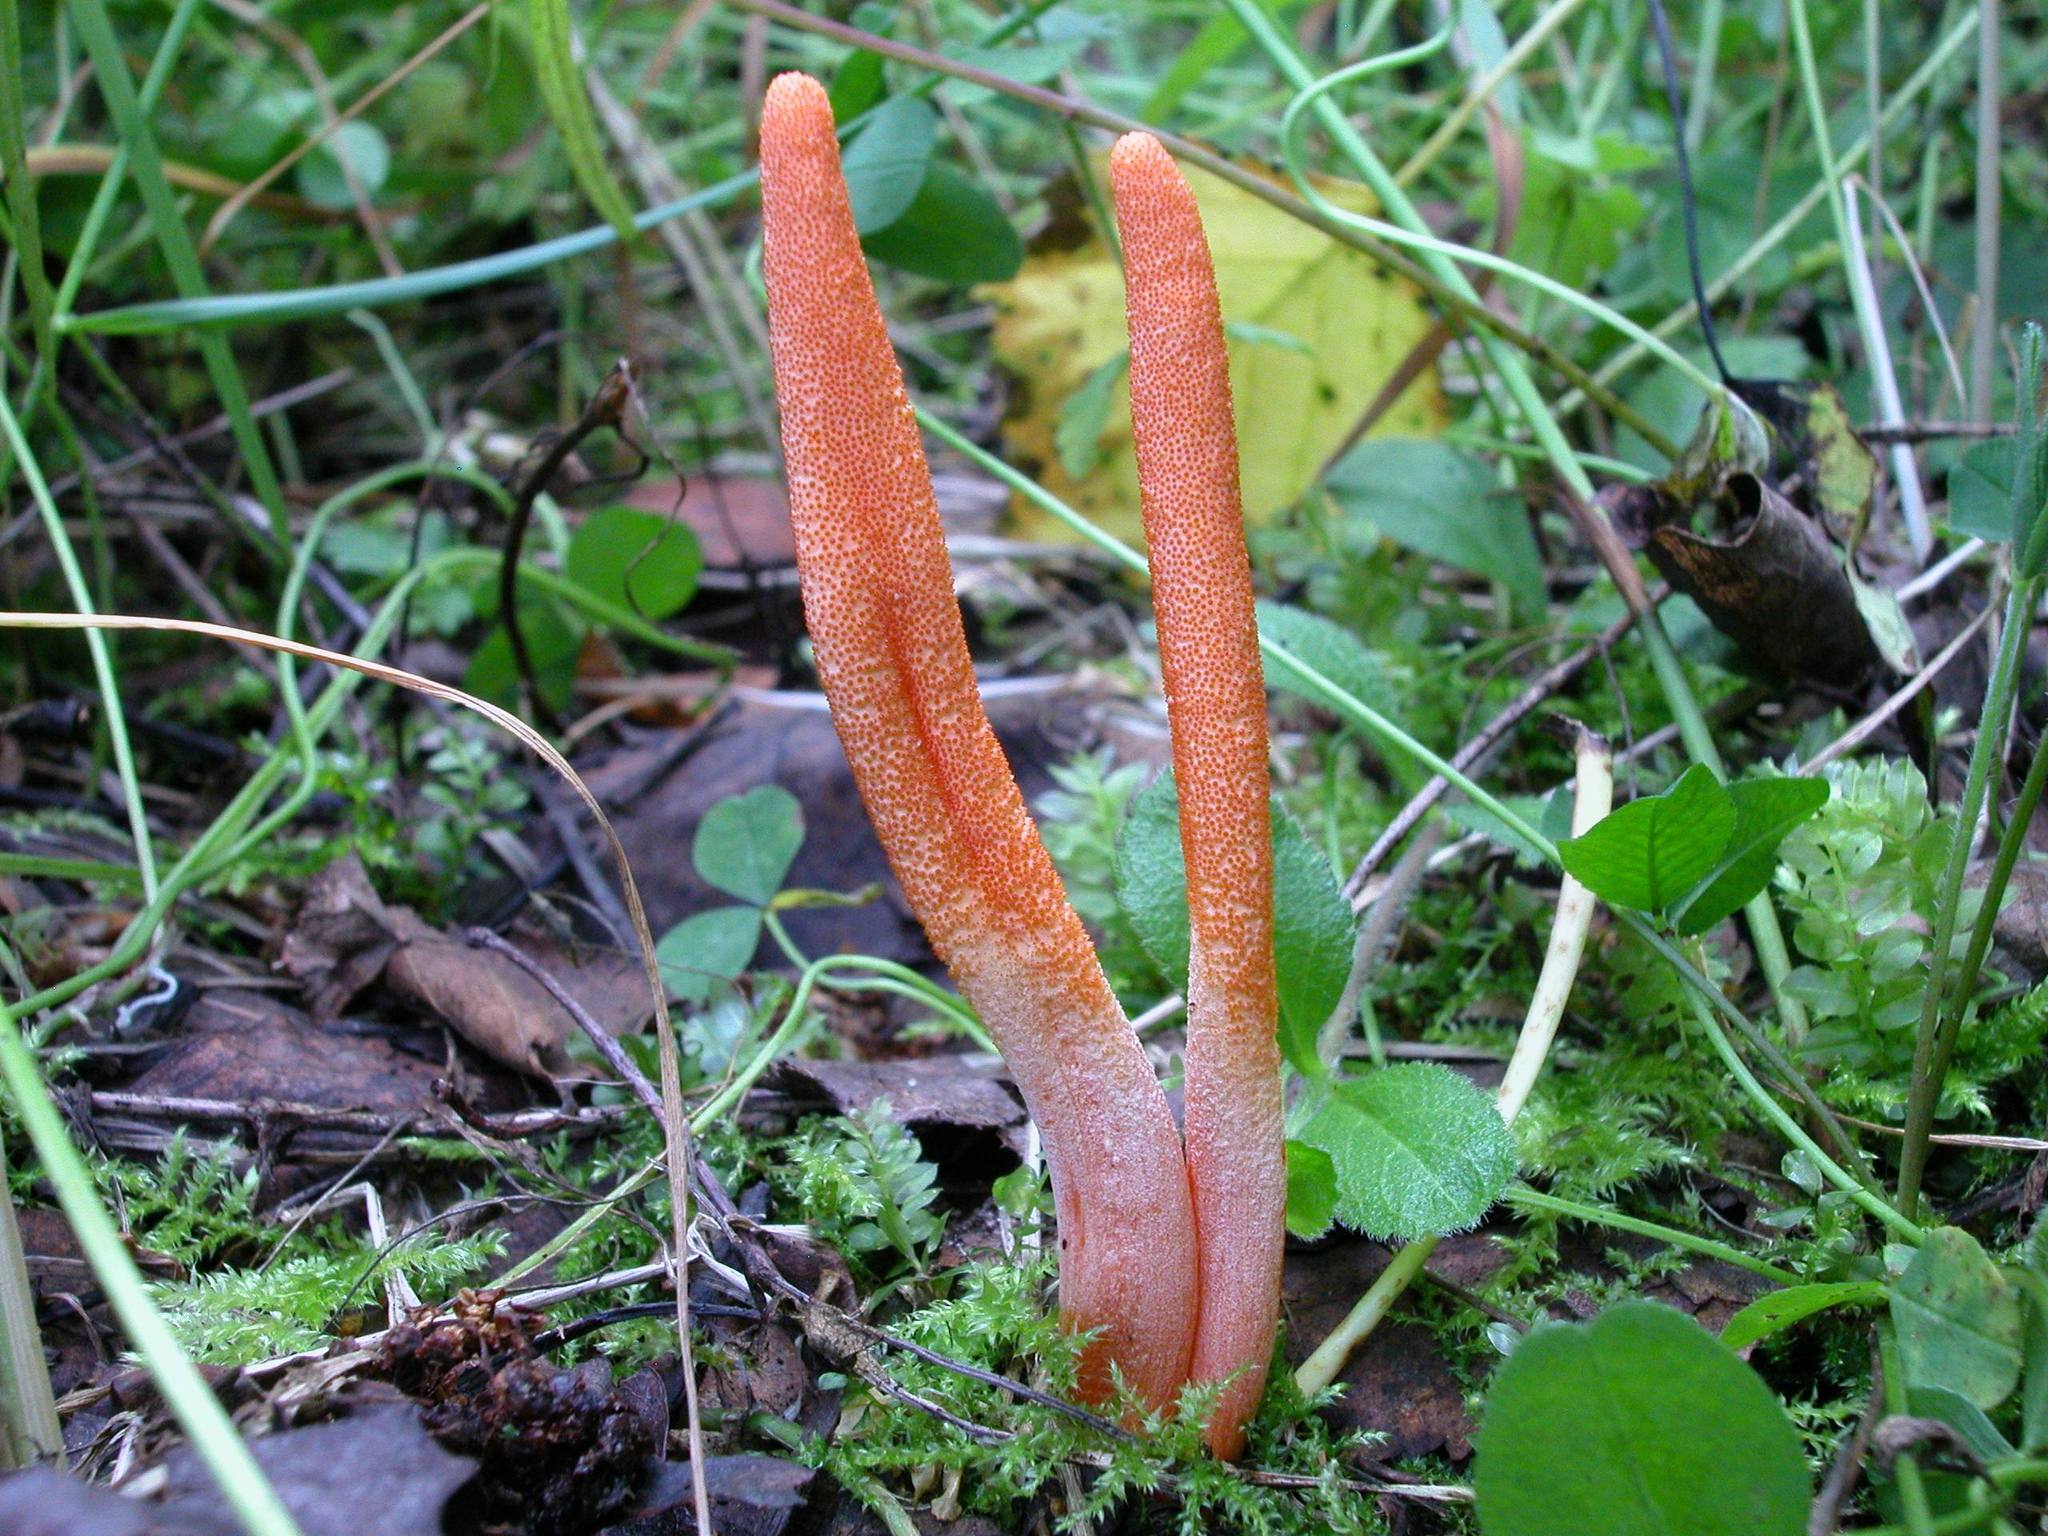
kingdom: Fungi
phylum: Ascomycota
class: Sordariomycetes
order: Hypocreales
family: Cordycipitaceae
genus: Cordyceps
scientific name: Cordyceps militaris
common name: Scarlet caterpillar fungus
